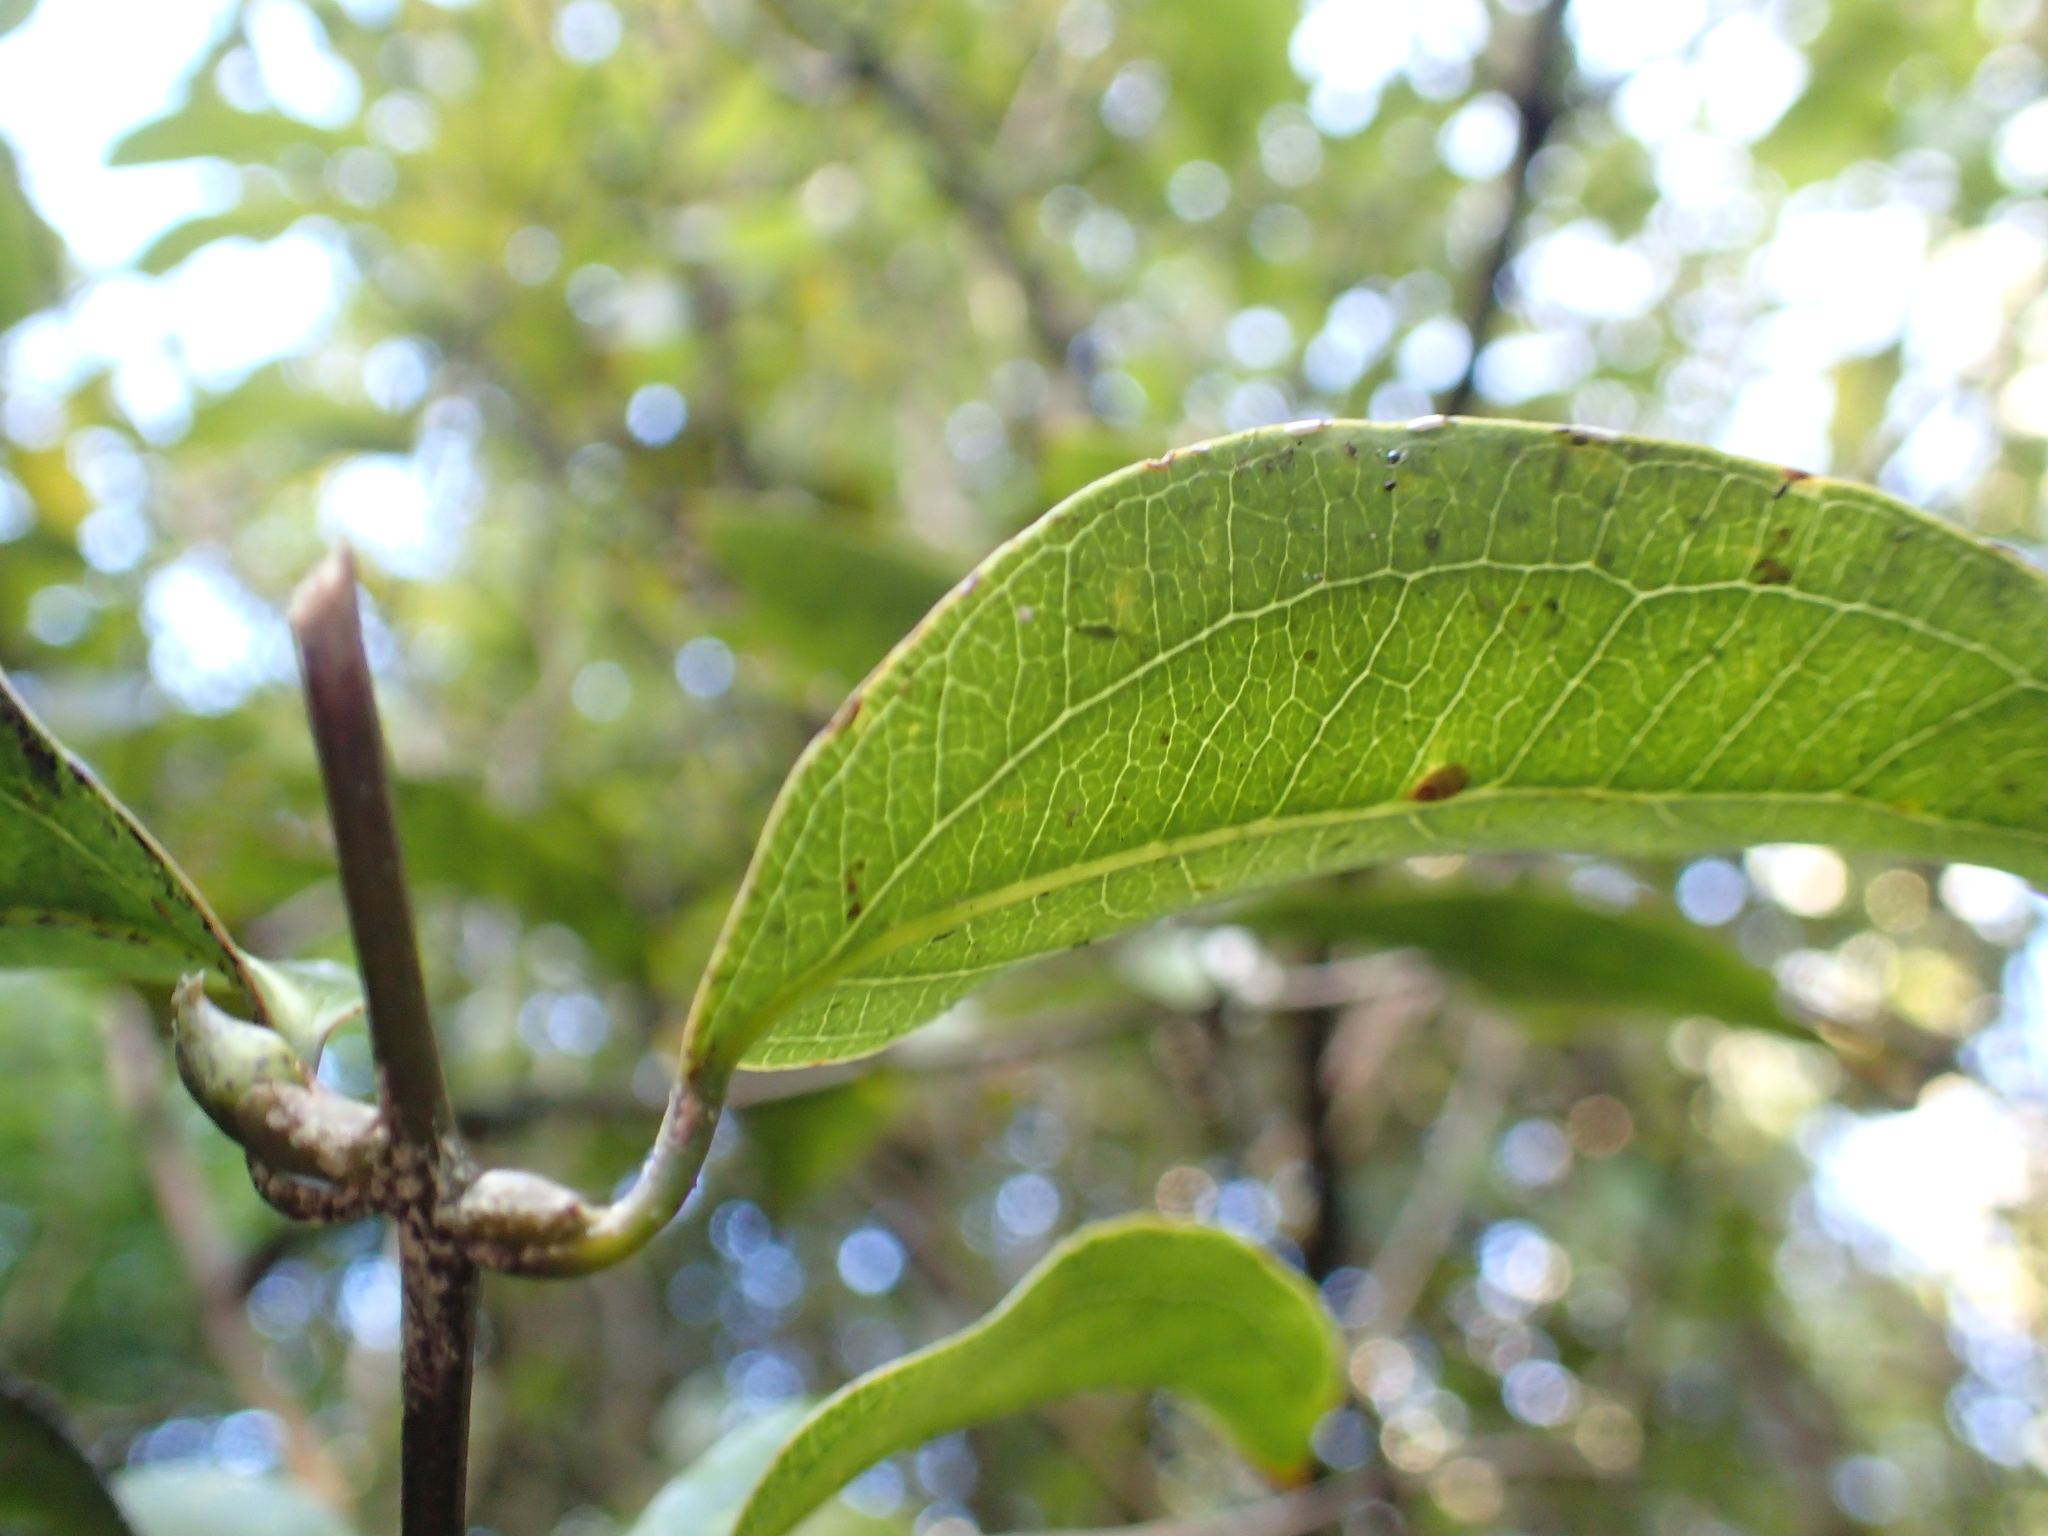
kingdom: Plantae
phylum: Tracheophyta
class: Liliopsida
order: Liliales
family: Ripogonaceae
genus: Ripogonum
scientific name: Ripogonum scandens
